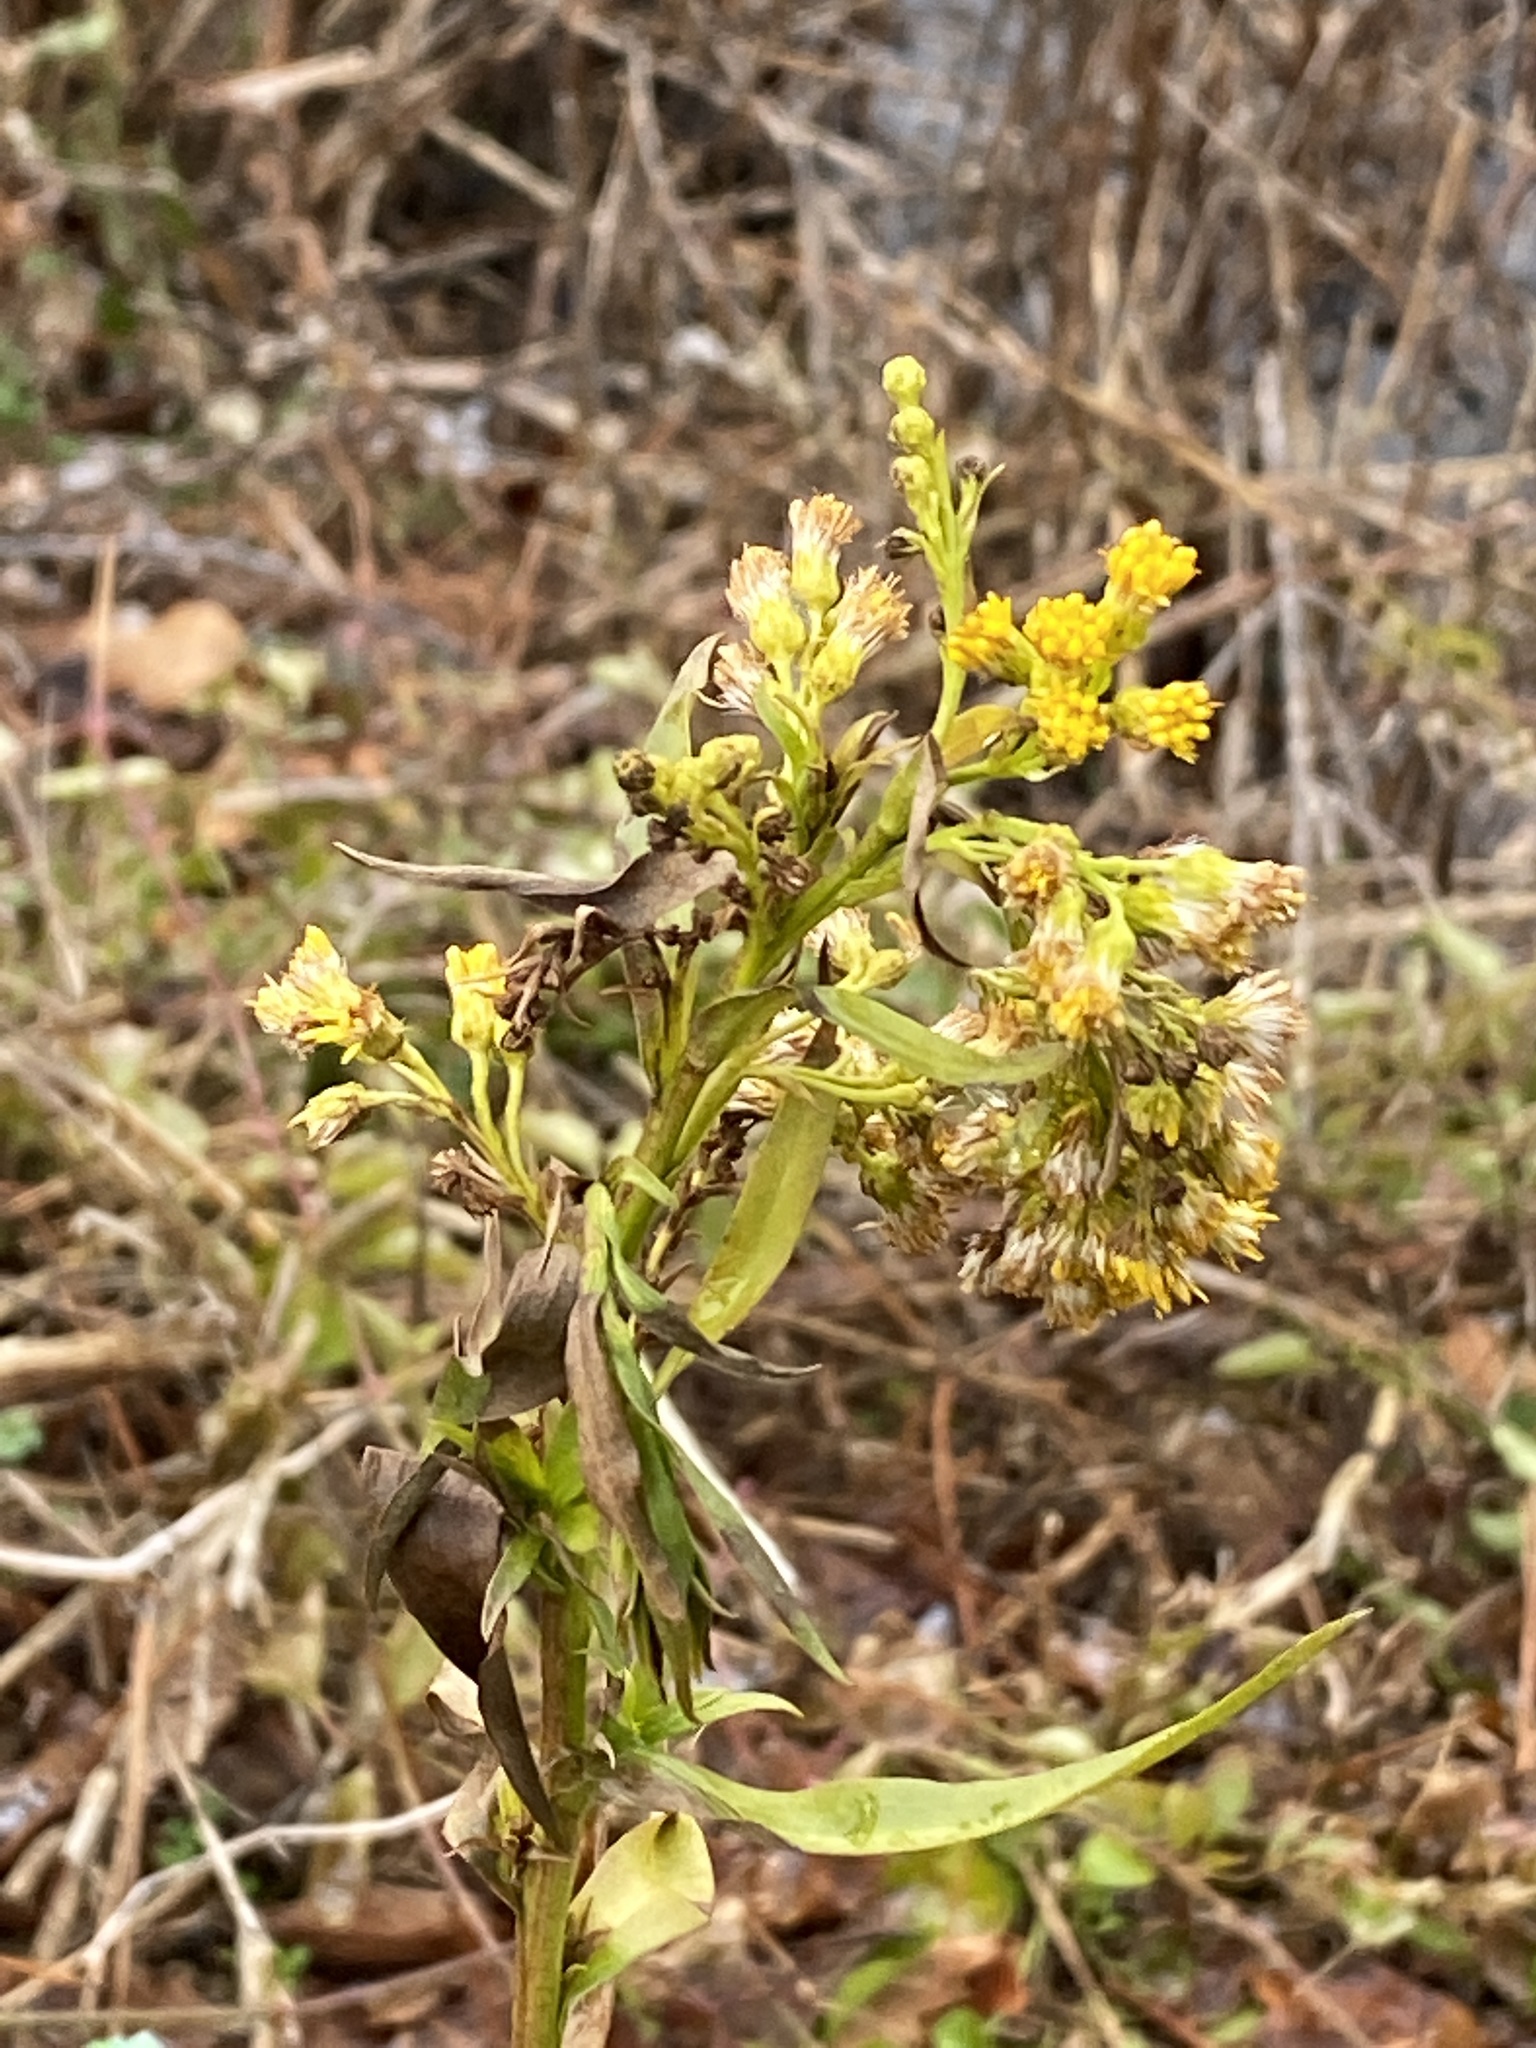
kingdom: Plantae
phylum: Tracheophyta
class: Magnoliopsida
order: Asterales
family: Asteraceae
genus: Solidago
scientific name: Solidago sempervirens
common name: Salt-marsh goldenrod
